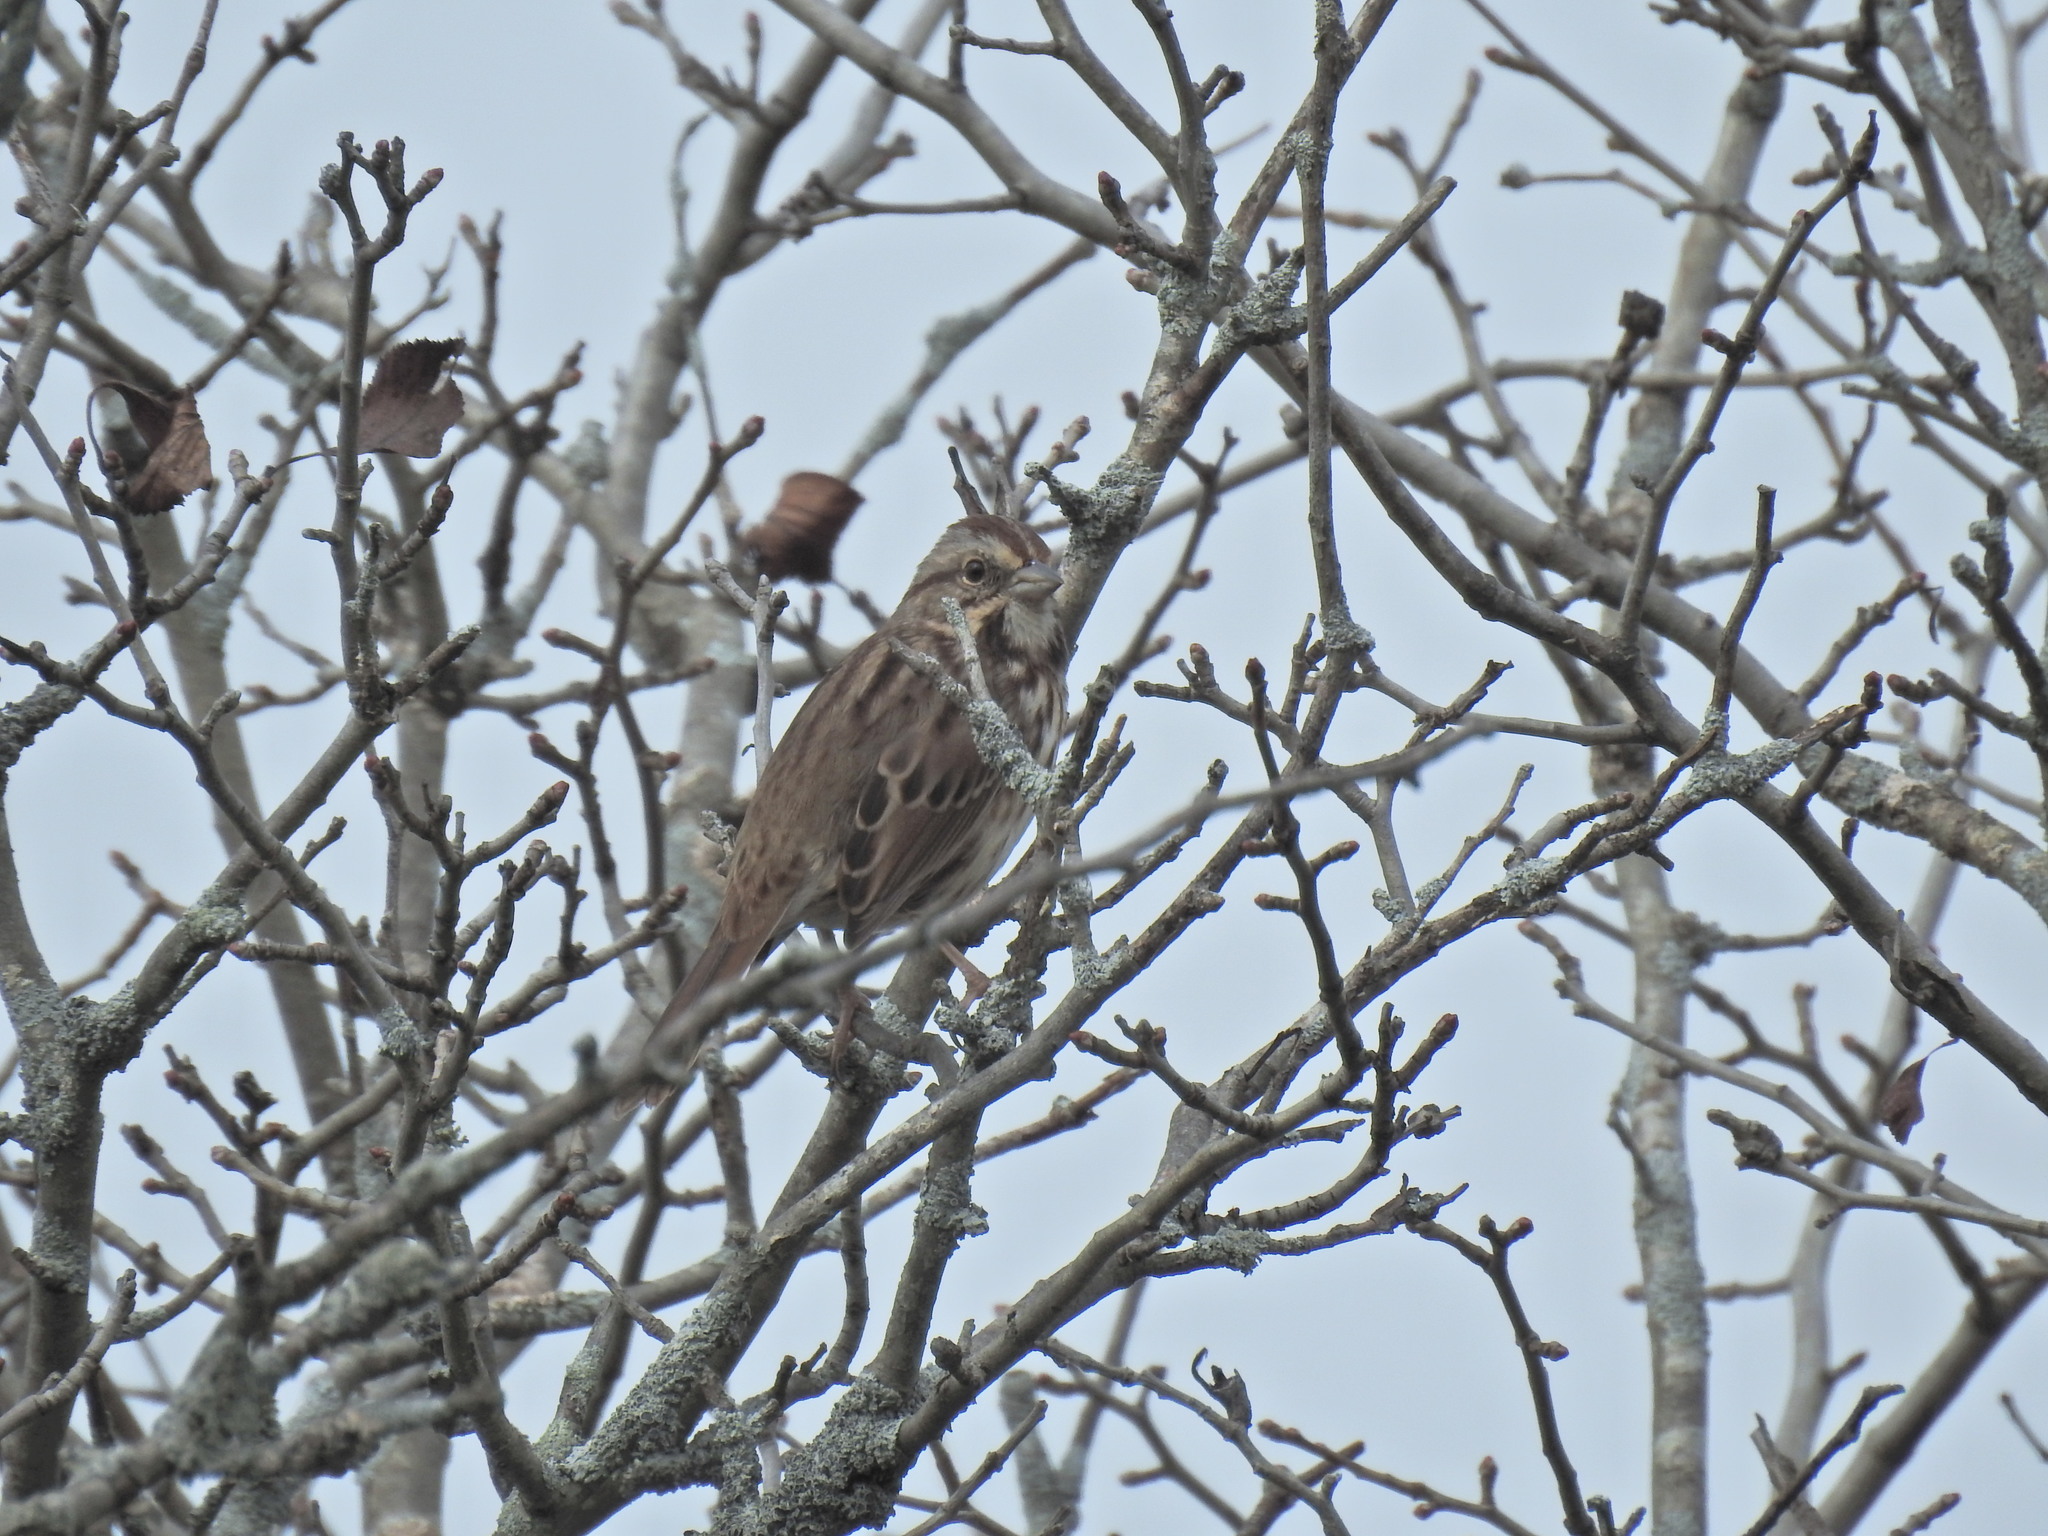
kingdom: Animalia
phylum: Chordata
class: Aves
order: Passeriformes
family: Passerellidae
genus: Melospiza
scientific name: Melospiza melodia
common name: Song sparrow
